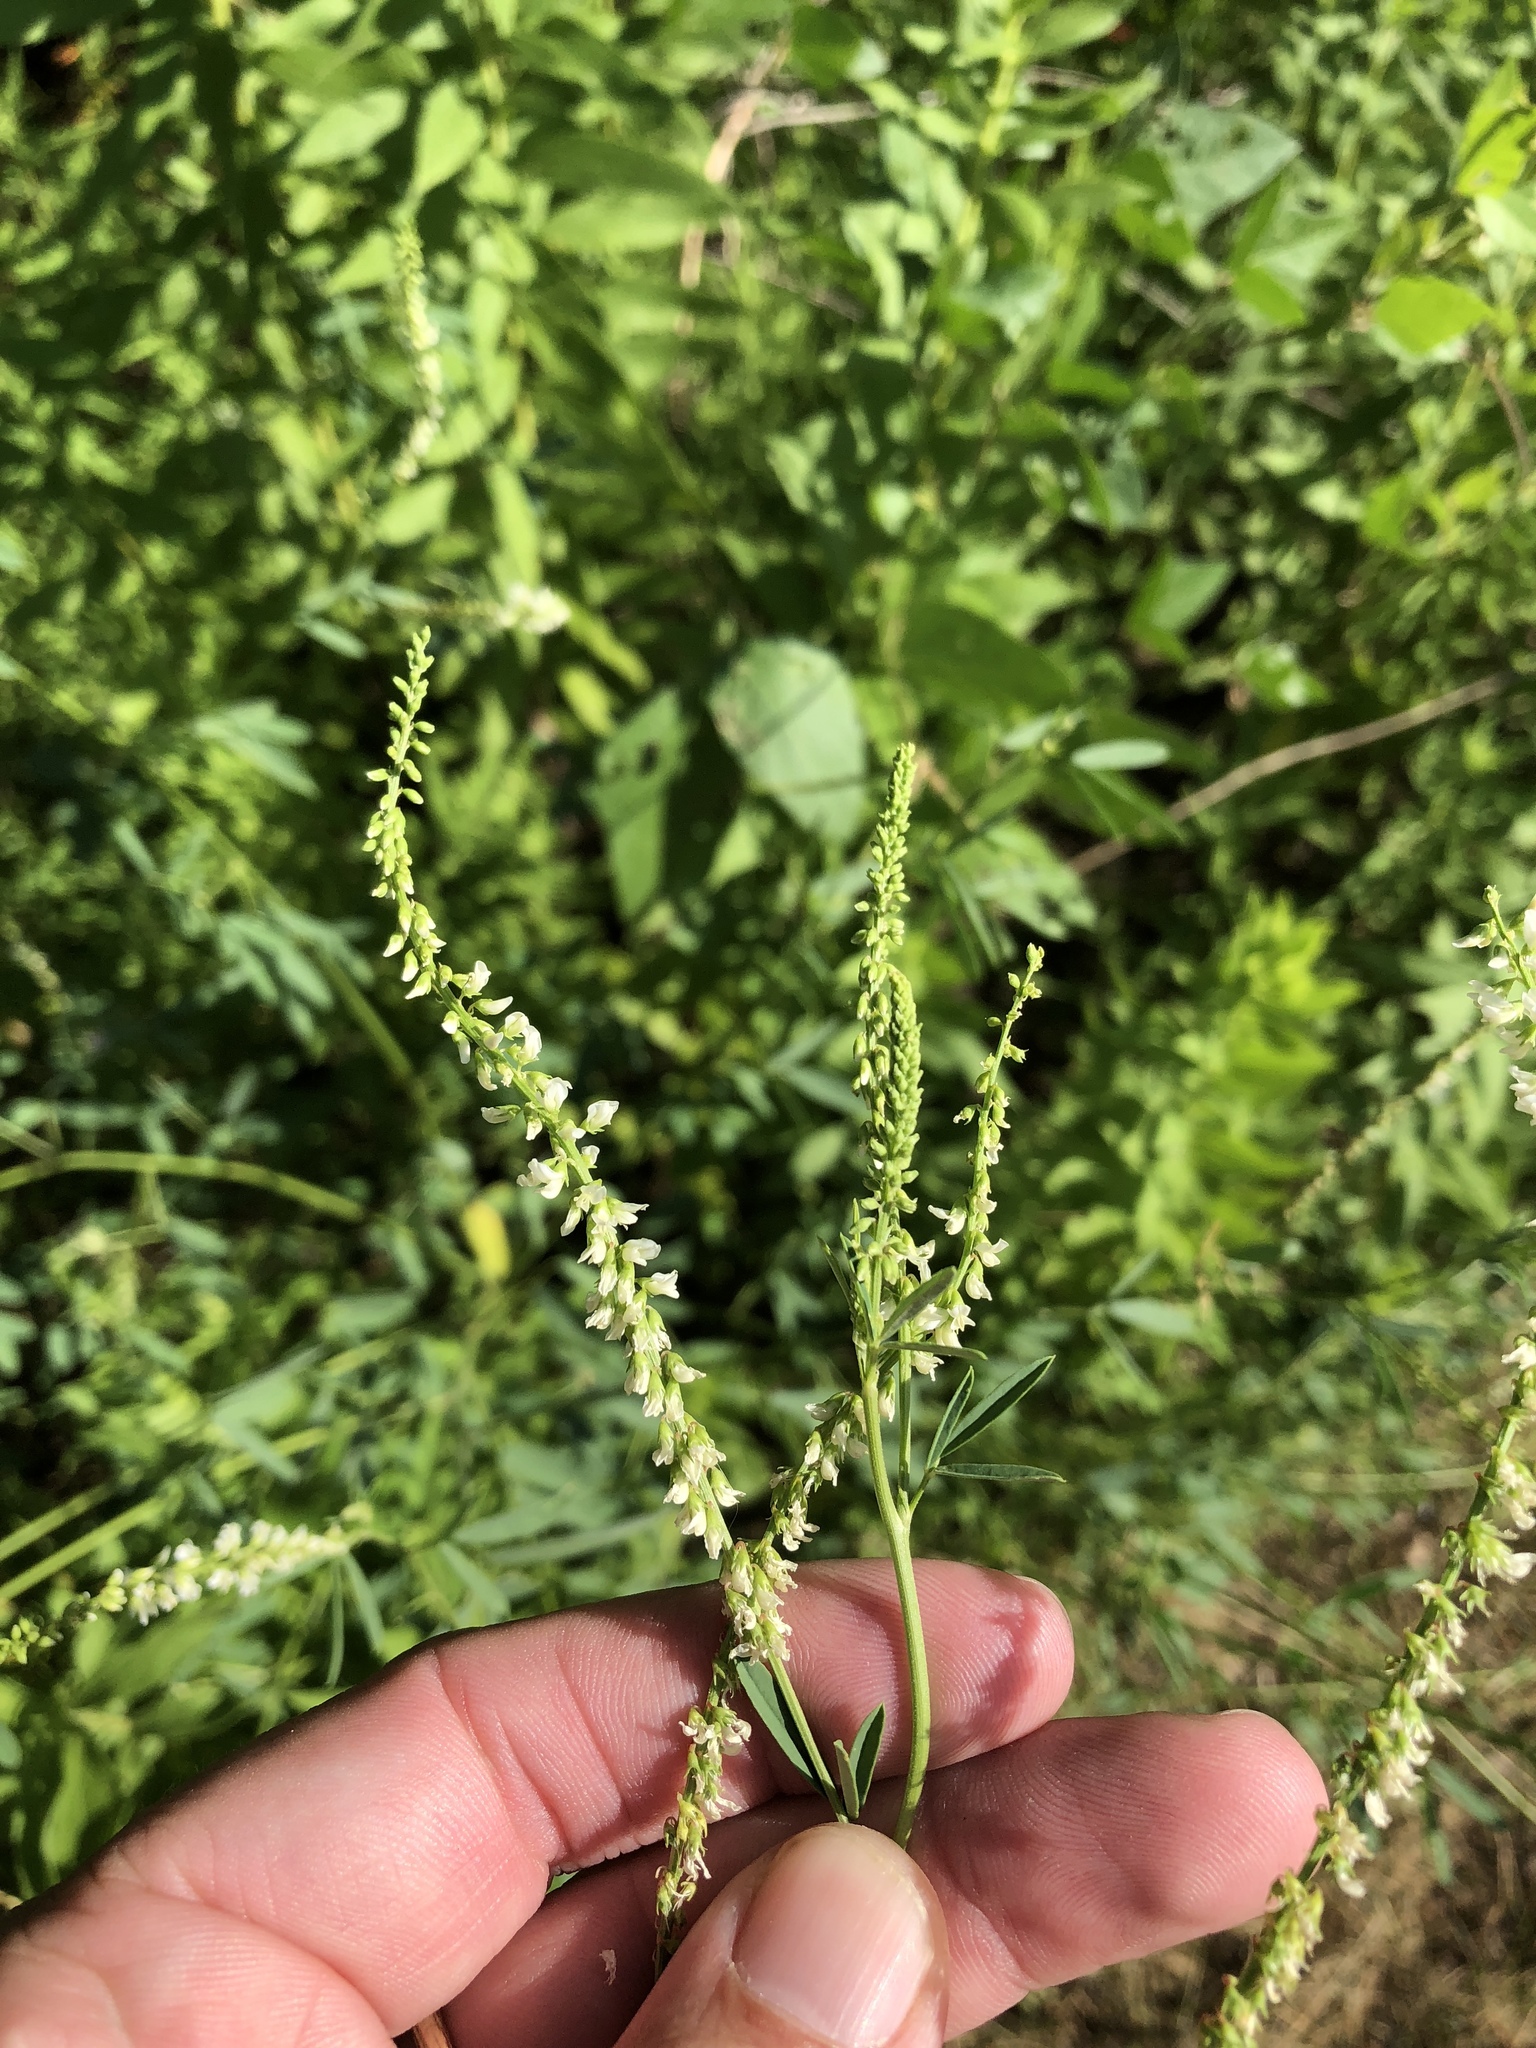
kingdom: Plantae
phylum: Tracheophyta
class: Magnoliopsida
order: Fabales
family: Fabaceae
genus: Melilotus
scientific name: Melilotus albus
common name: White melilot
